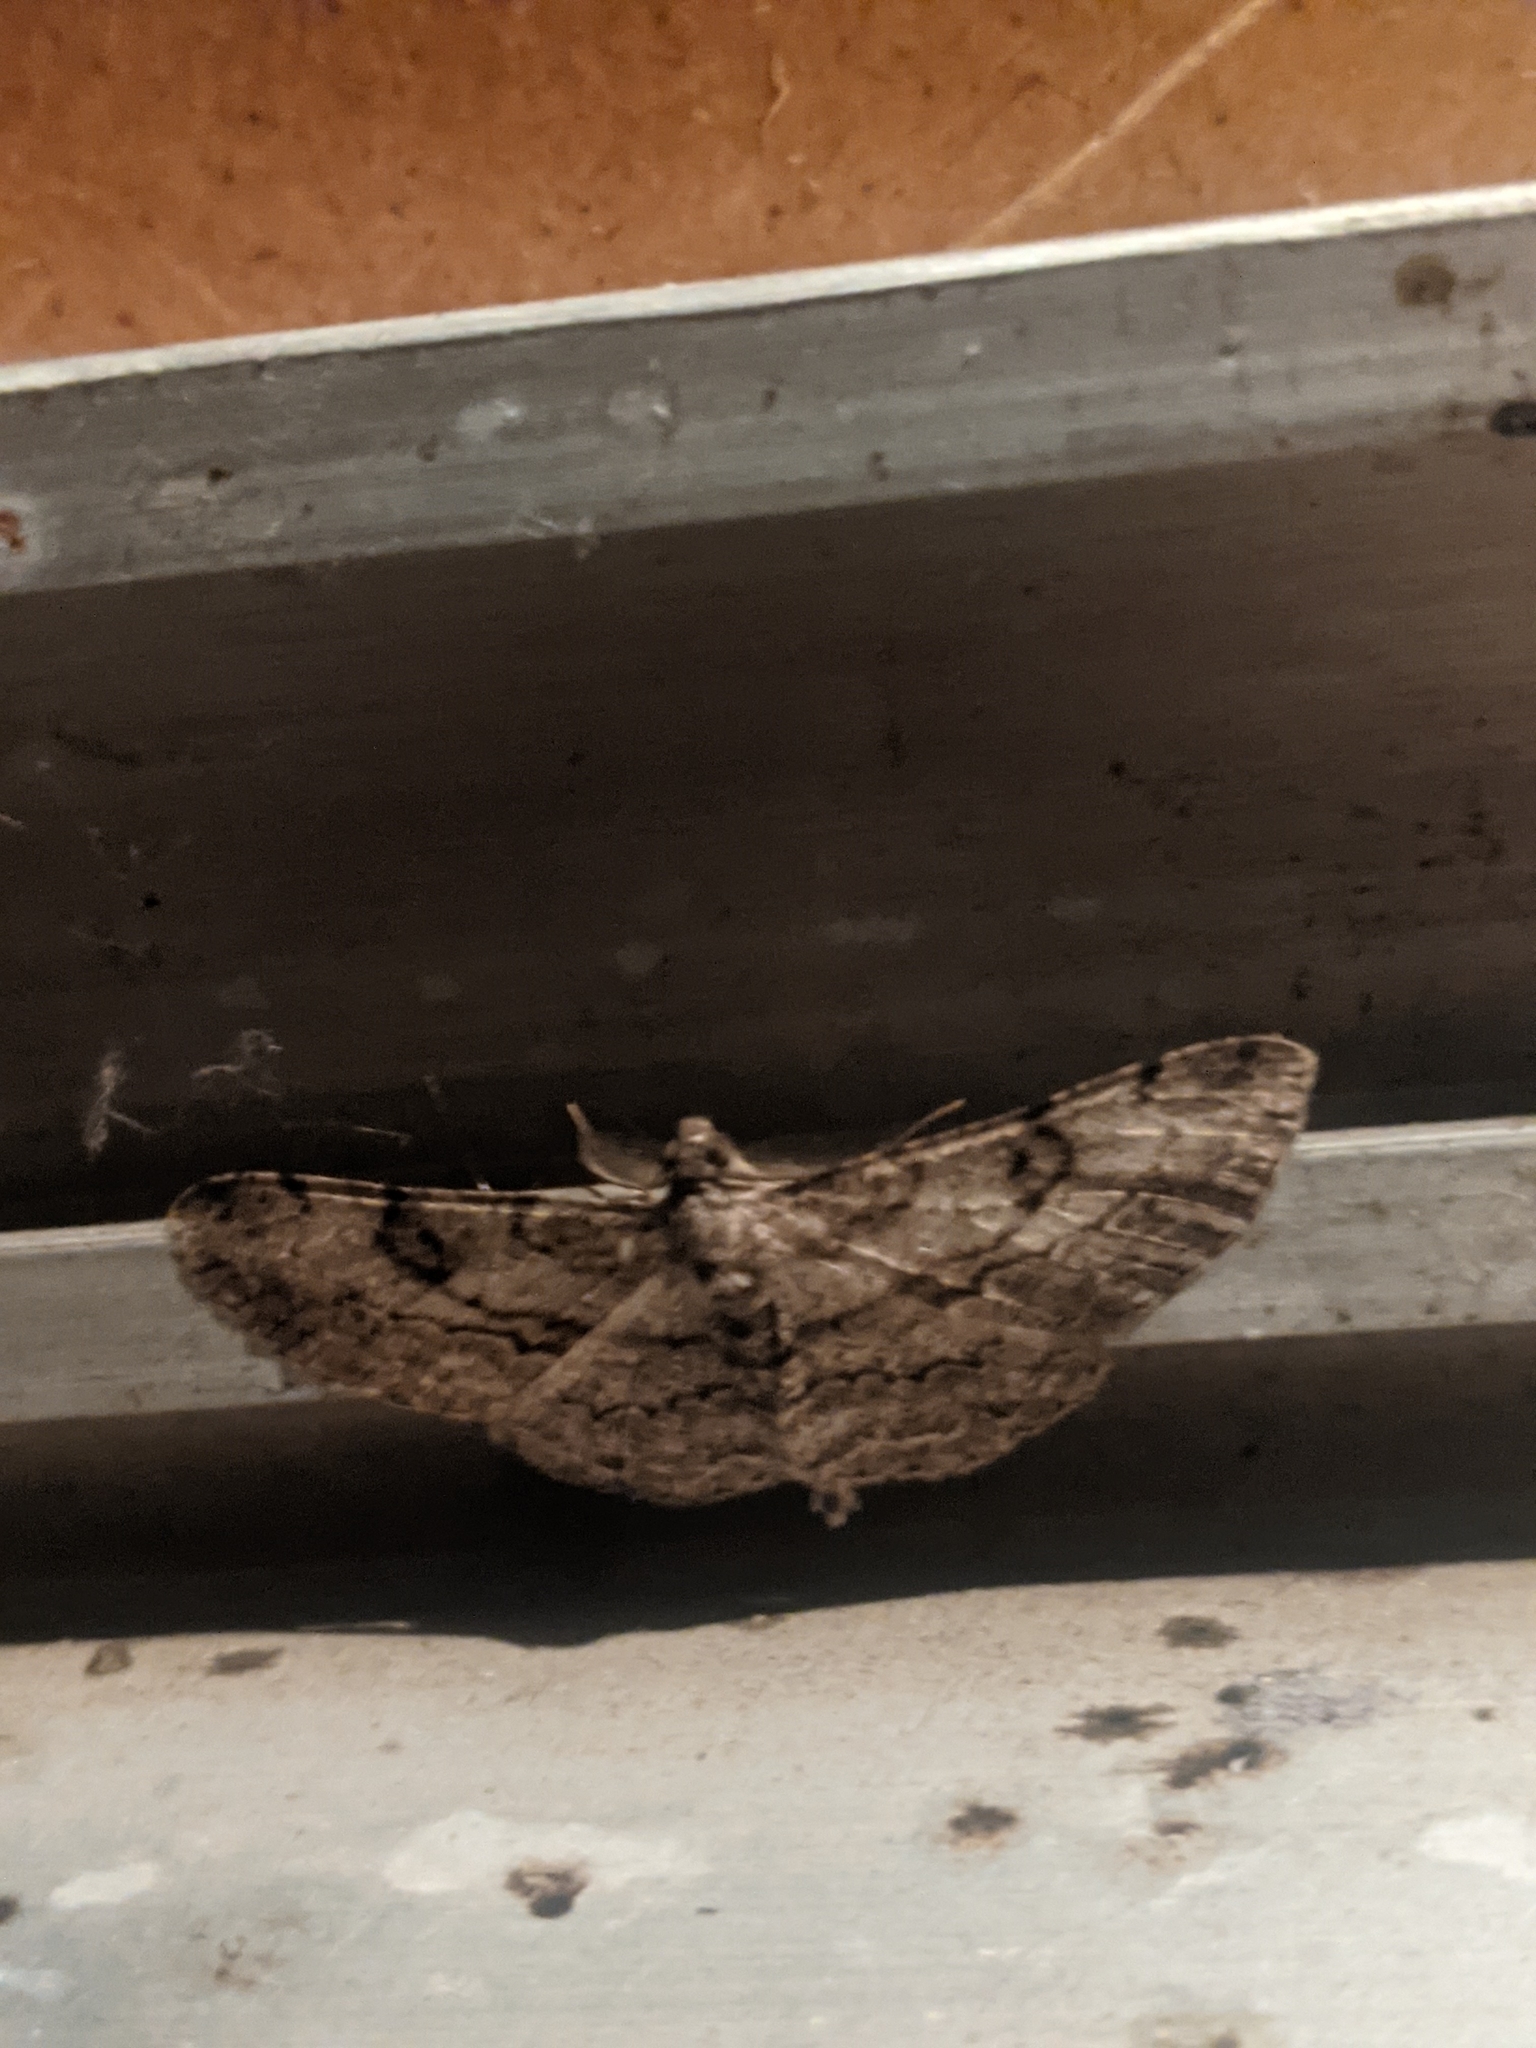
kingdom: Animalia
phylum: Arthropoda
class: Insecta
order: Lepidoptera
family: Geometridae
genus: Peribatodes
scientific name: Peribatodes rhomboidaria
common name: Willow beauty
